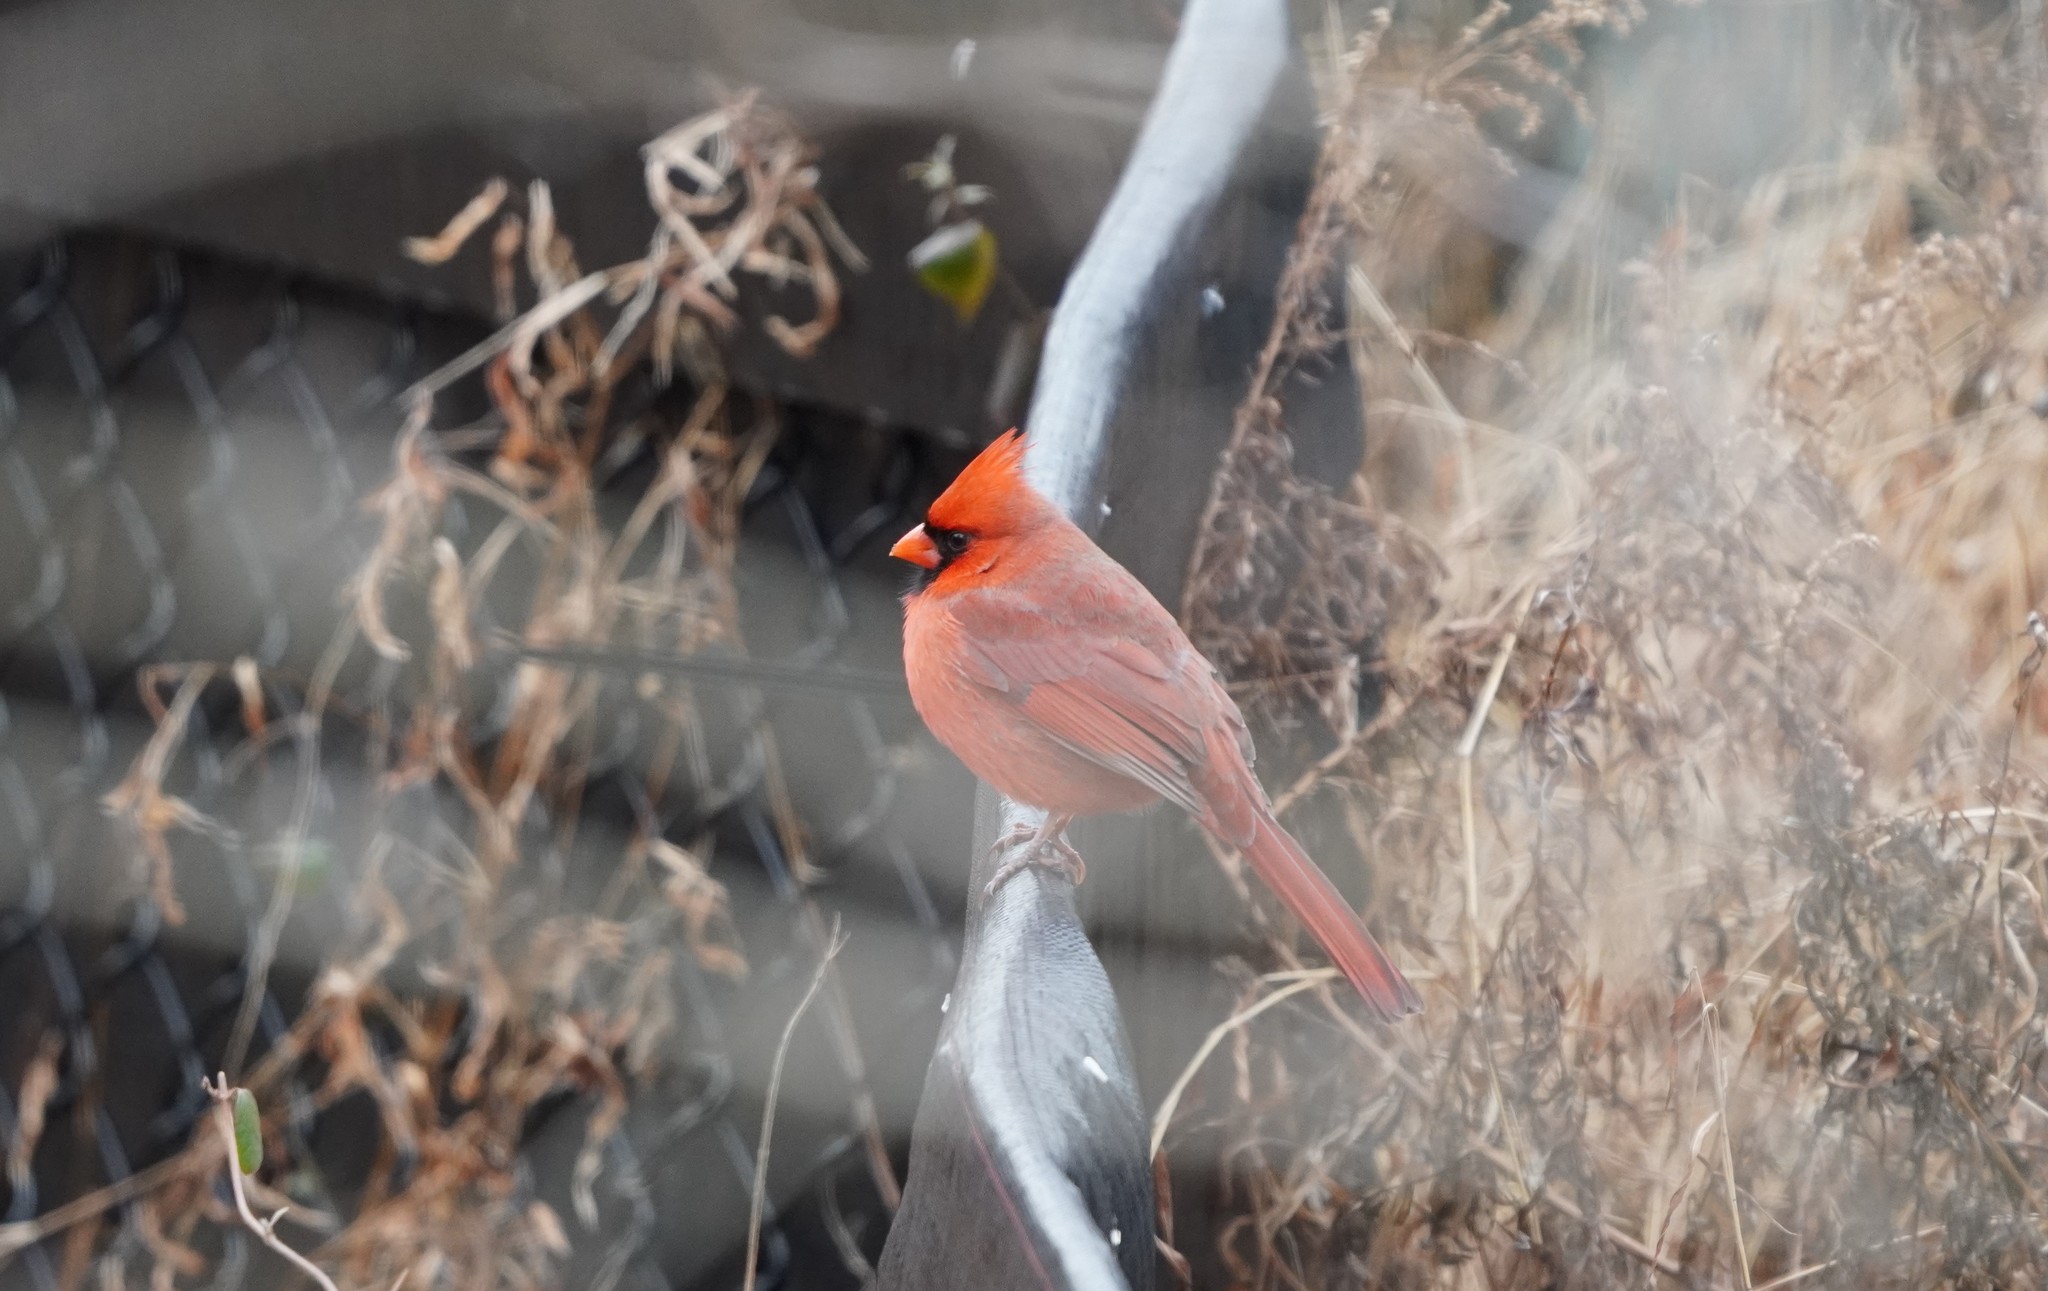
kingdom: Animalia
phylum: Chordata
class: Aves
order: Passeriformes
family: Cardinalidae
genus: Cardinalis
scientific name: Cardinalis cardinalis
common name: Northern cardinal
